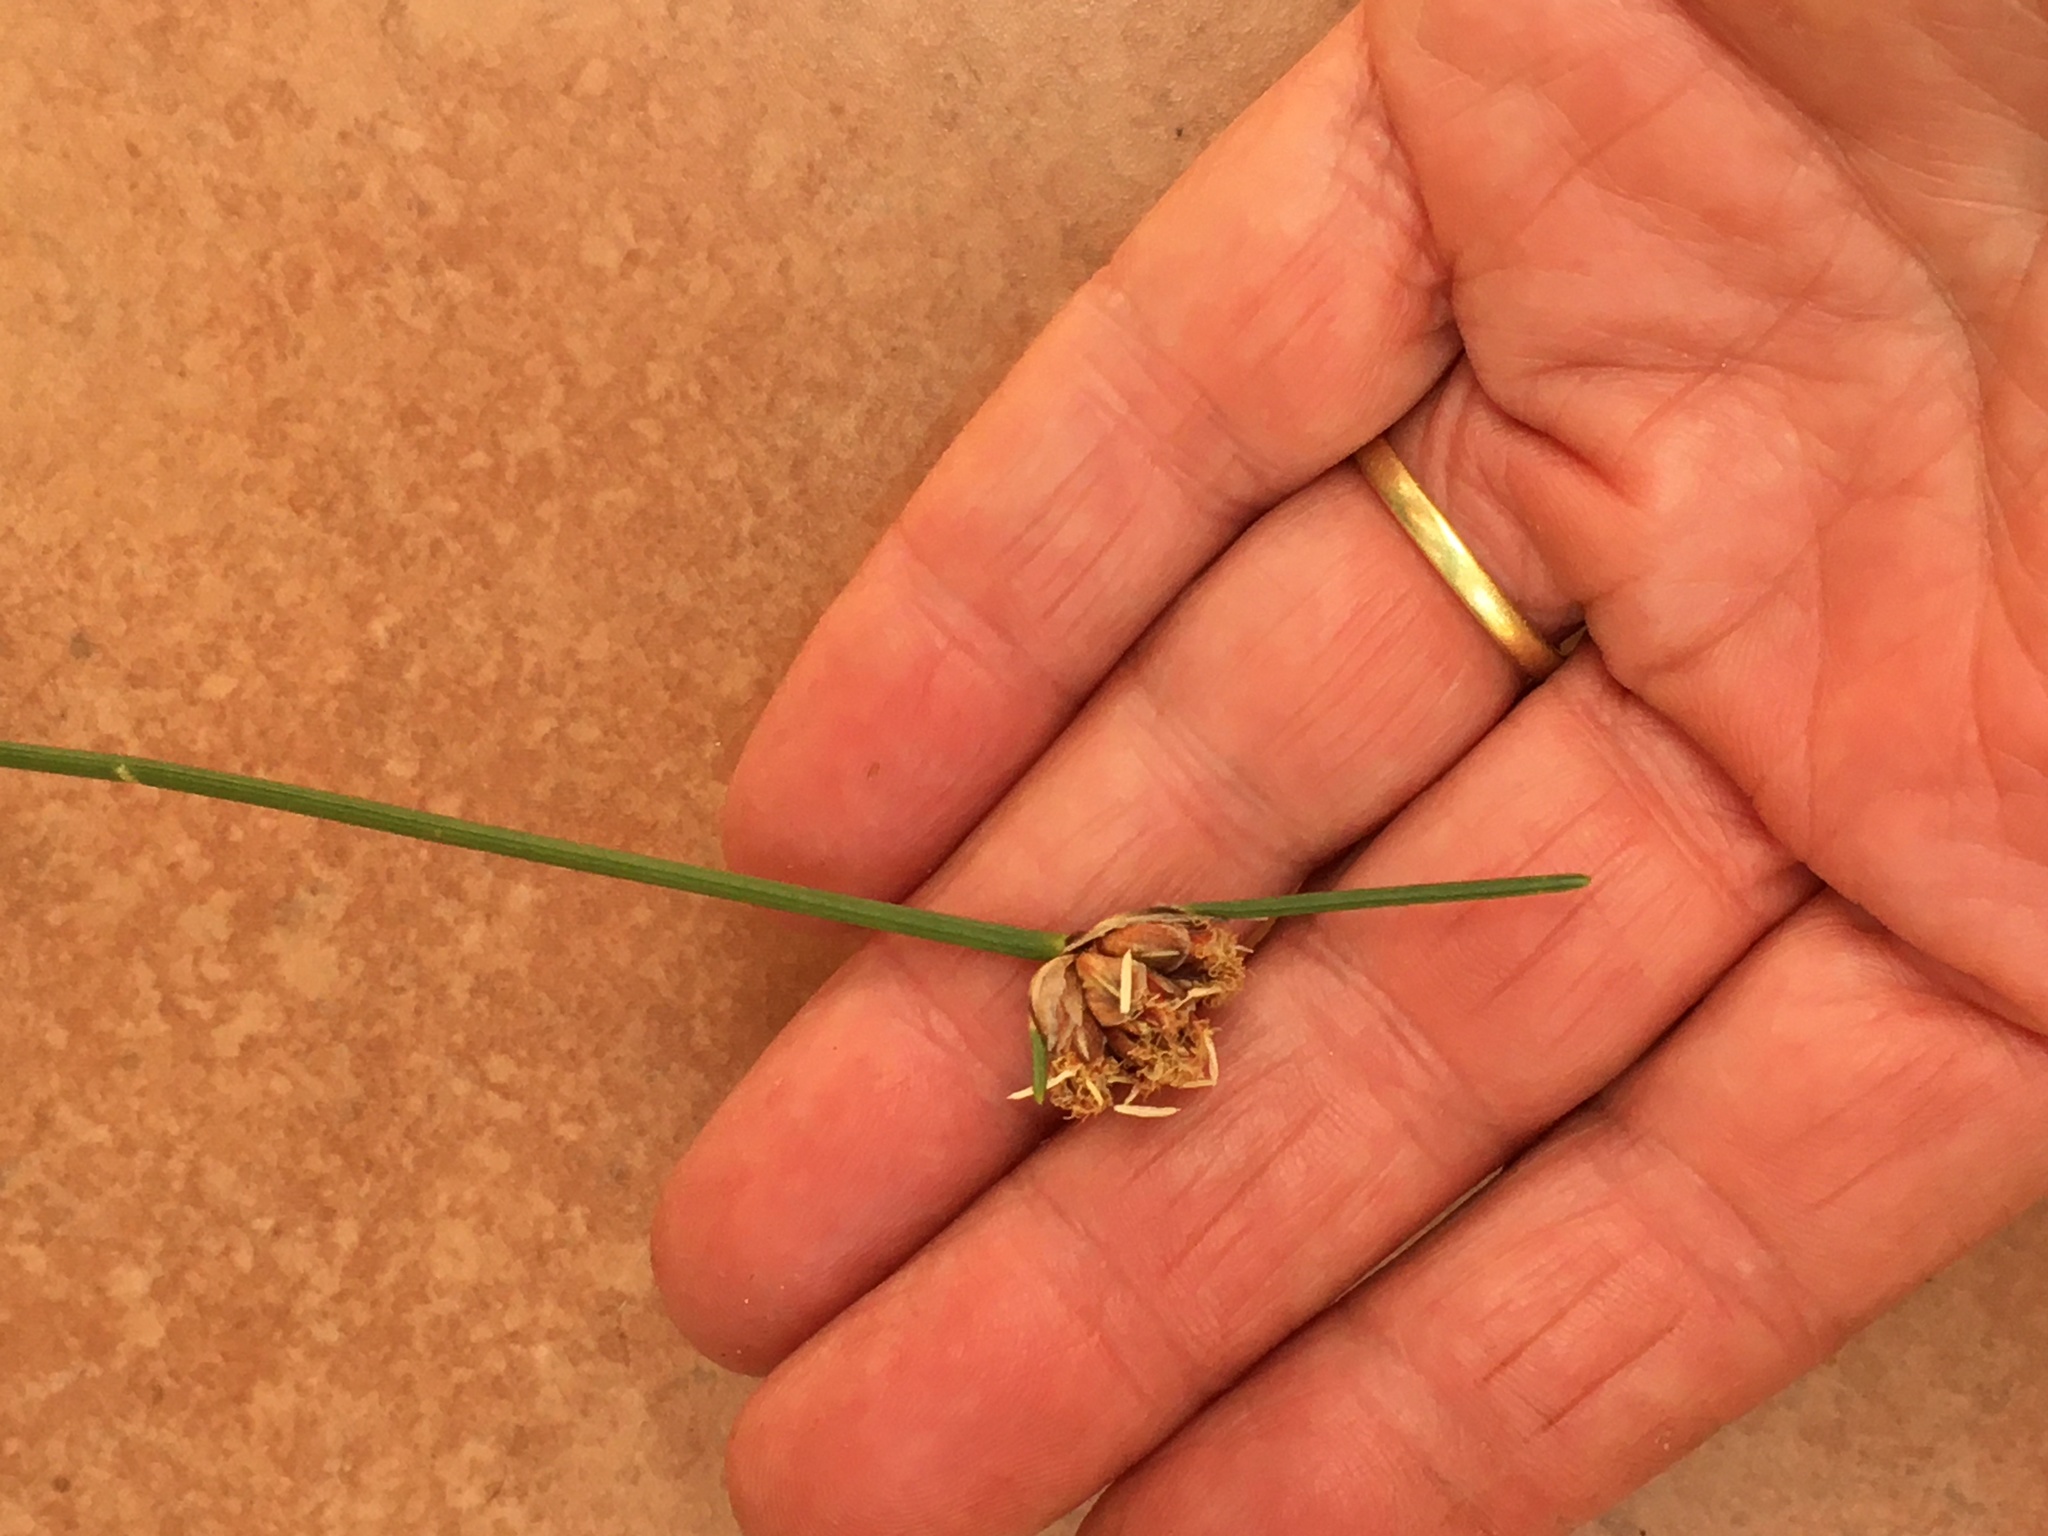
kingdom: Plantae
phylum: Tracheophyta
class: Liliopsida
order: Poales
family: Cyperaceae
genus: Ficinia
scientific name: Ficinia pinguior
